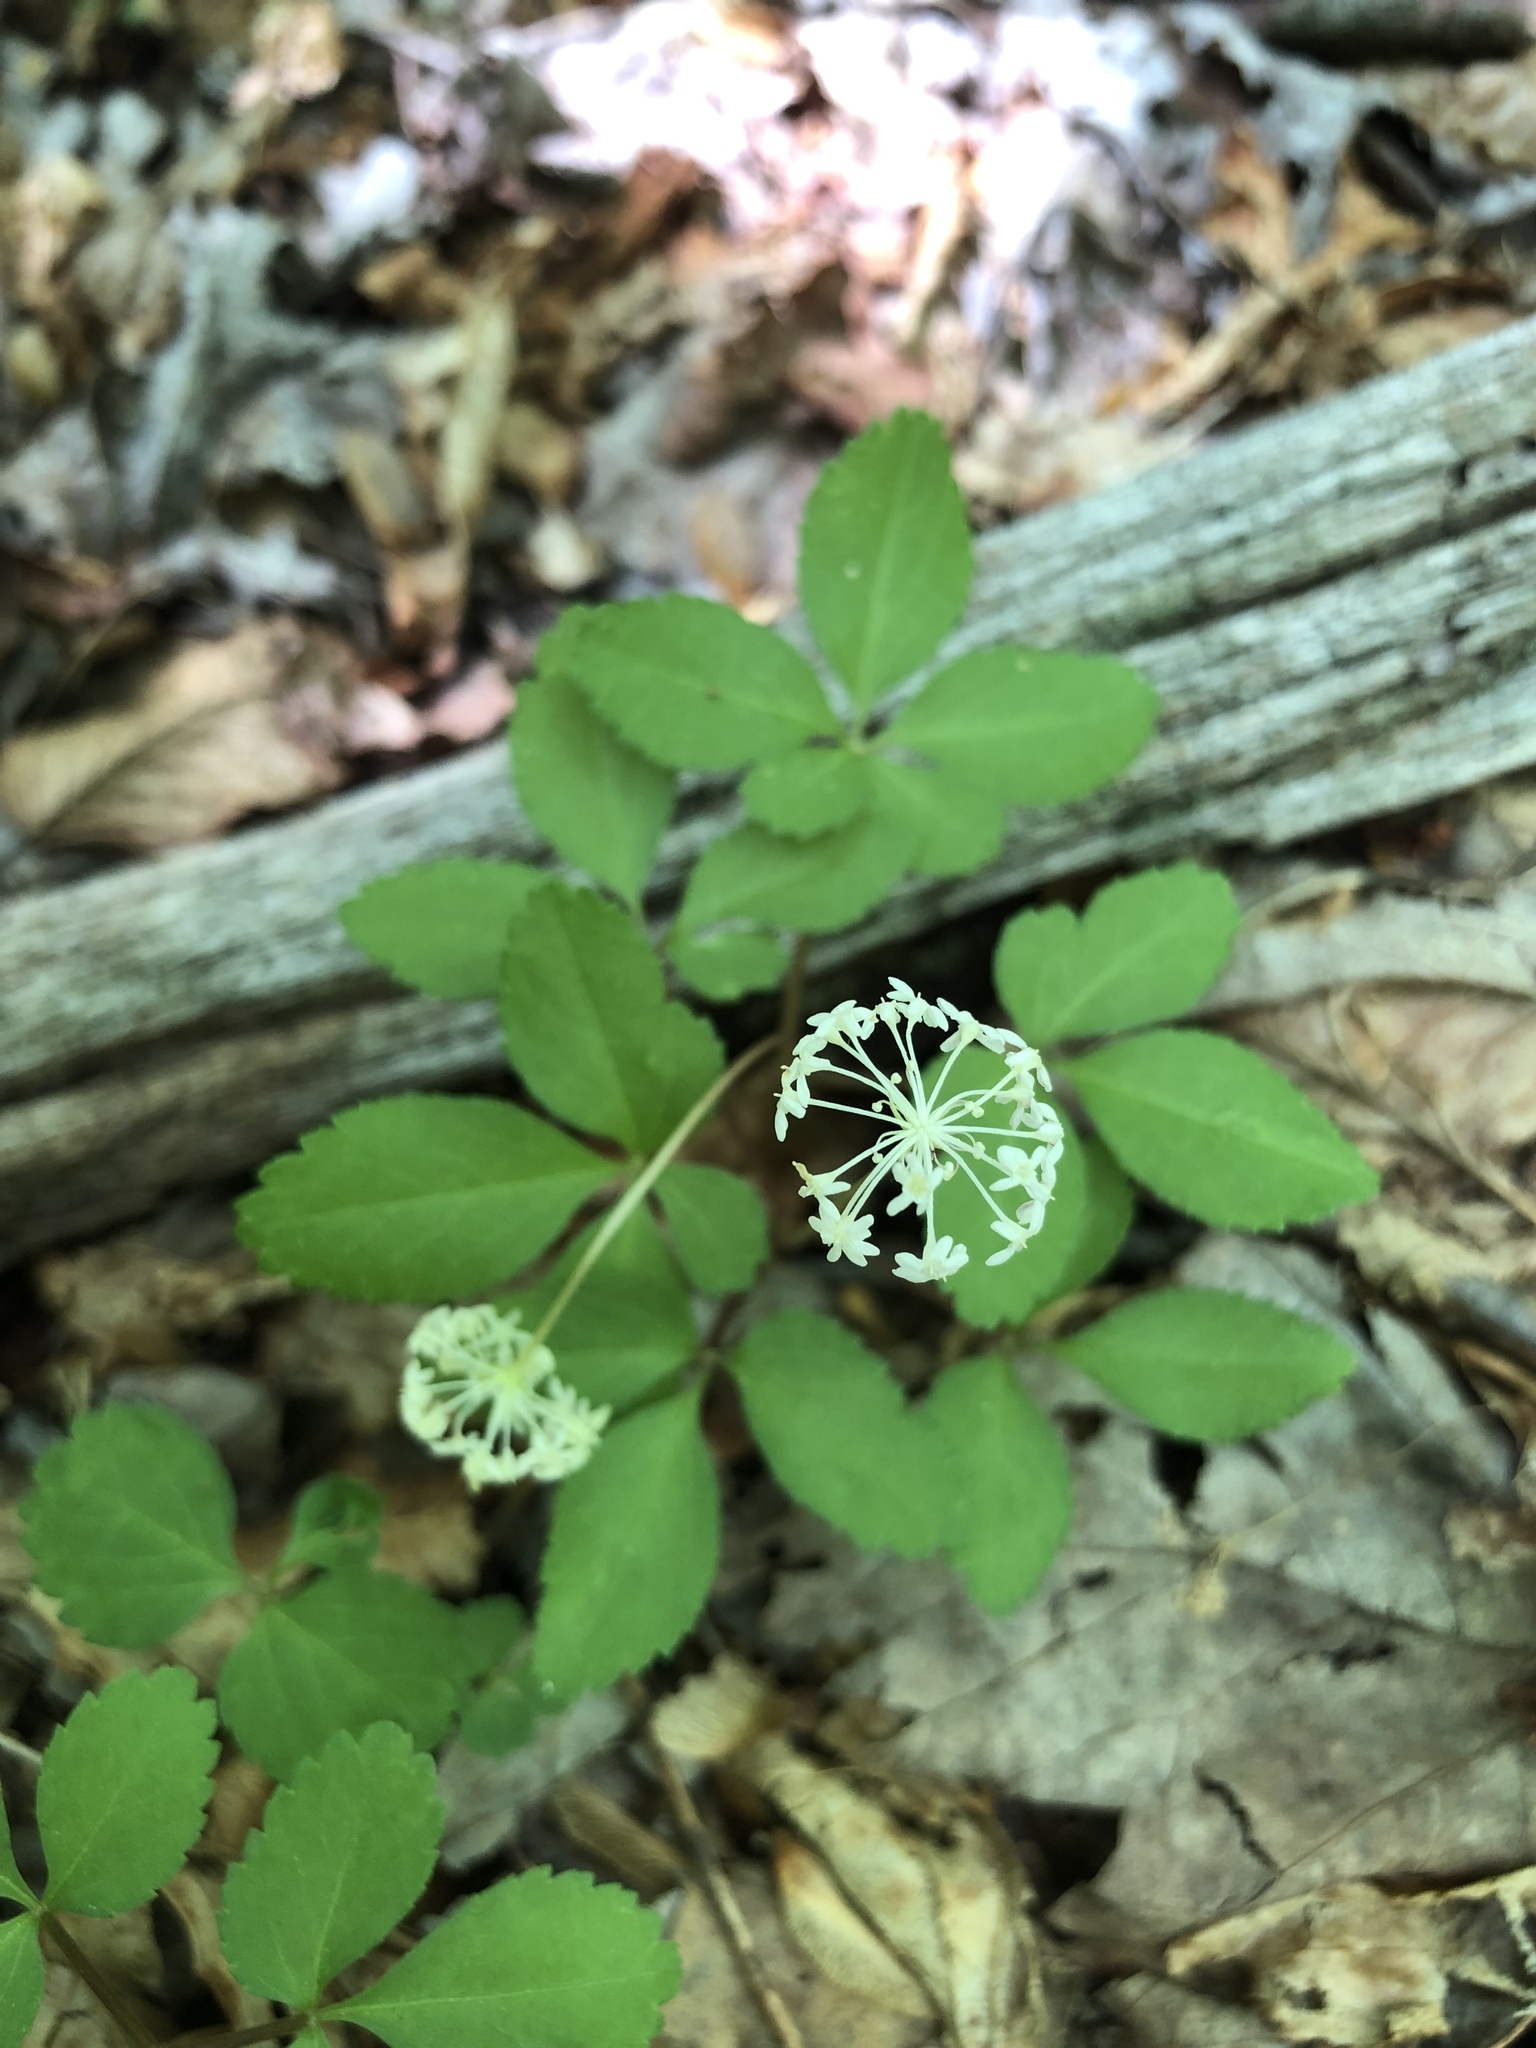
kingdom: Plantae
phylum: Tracheophyta
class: Magnoliopsida
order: Apiales
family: Araliaceae
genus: Panax
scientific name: Panax trifolius
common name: Dwarf ginseng
